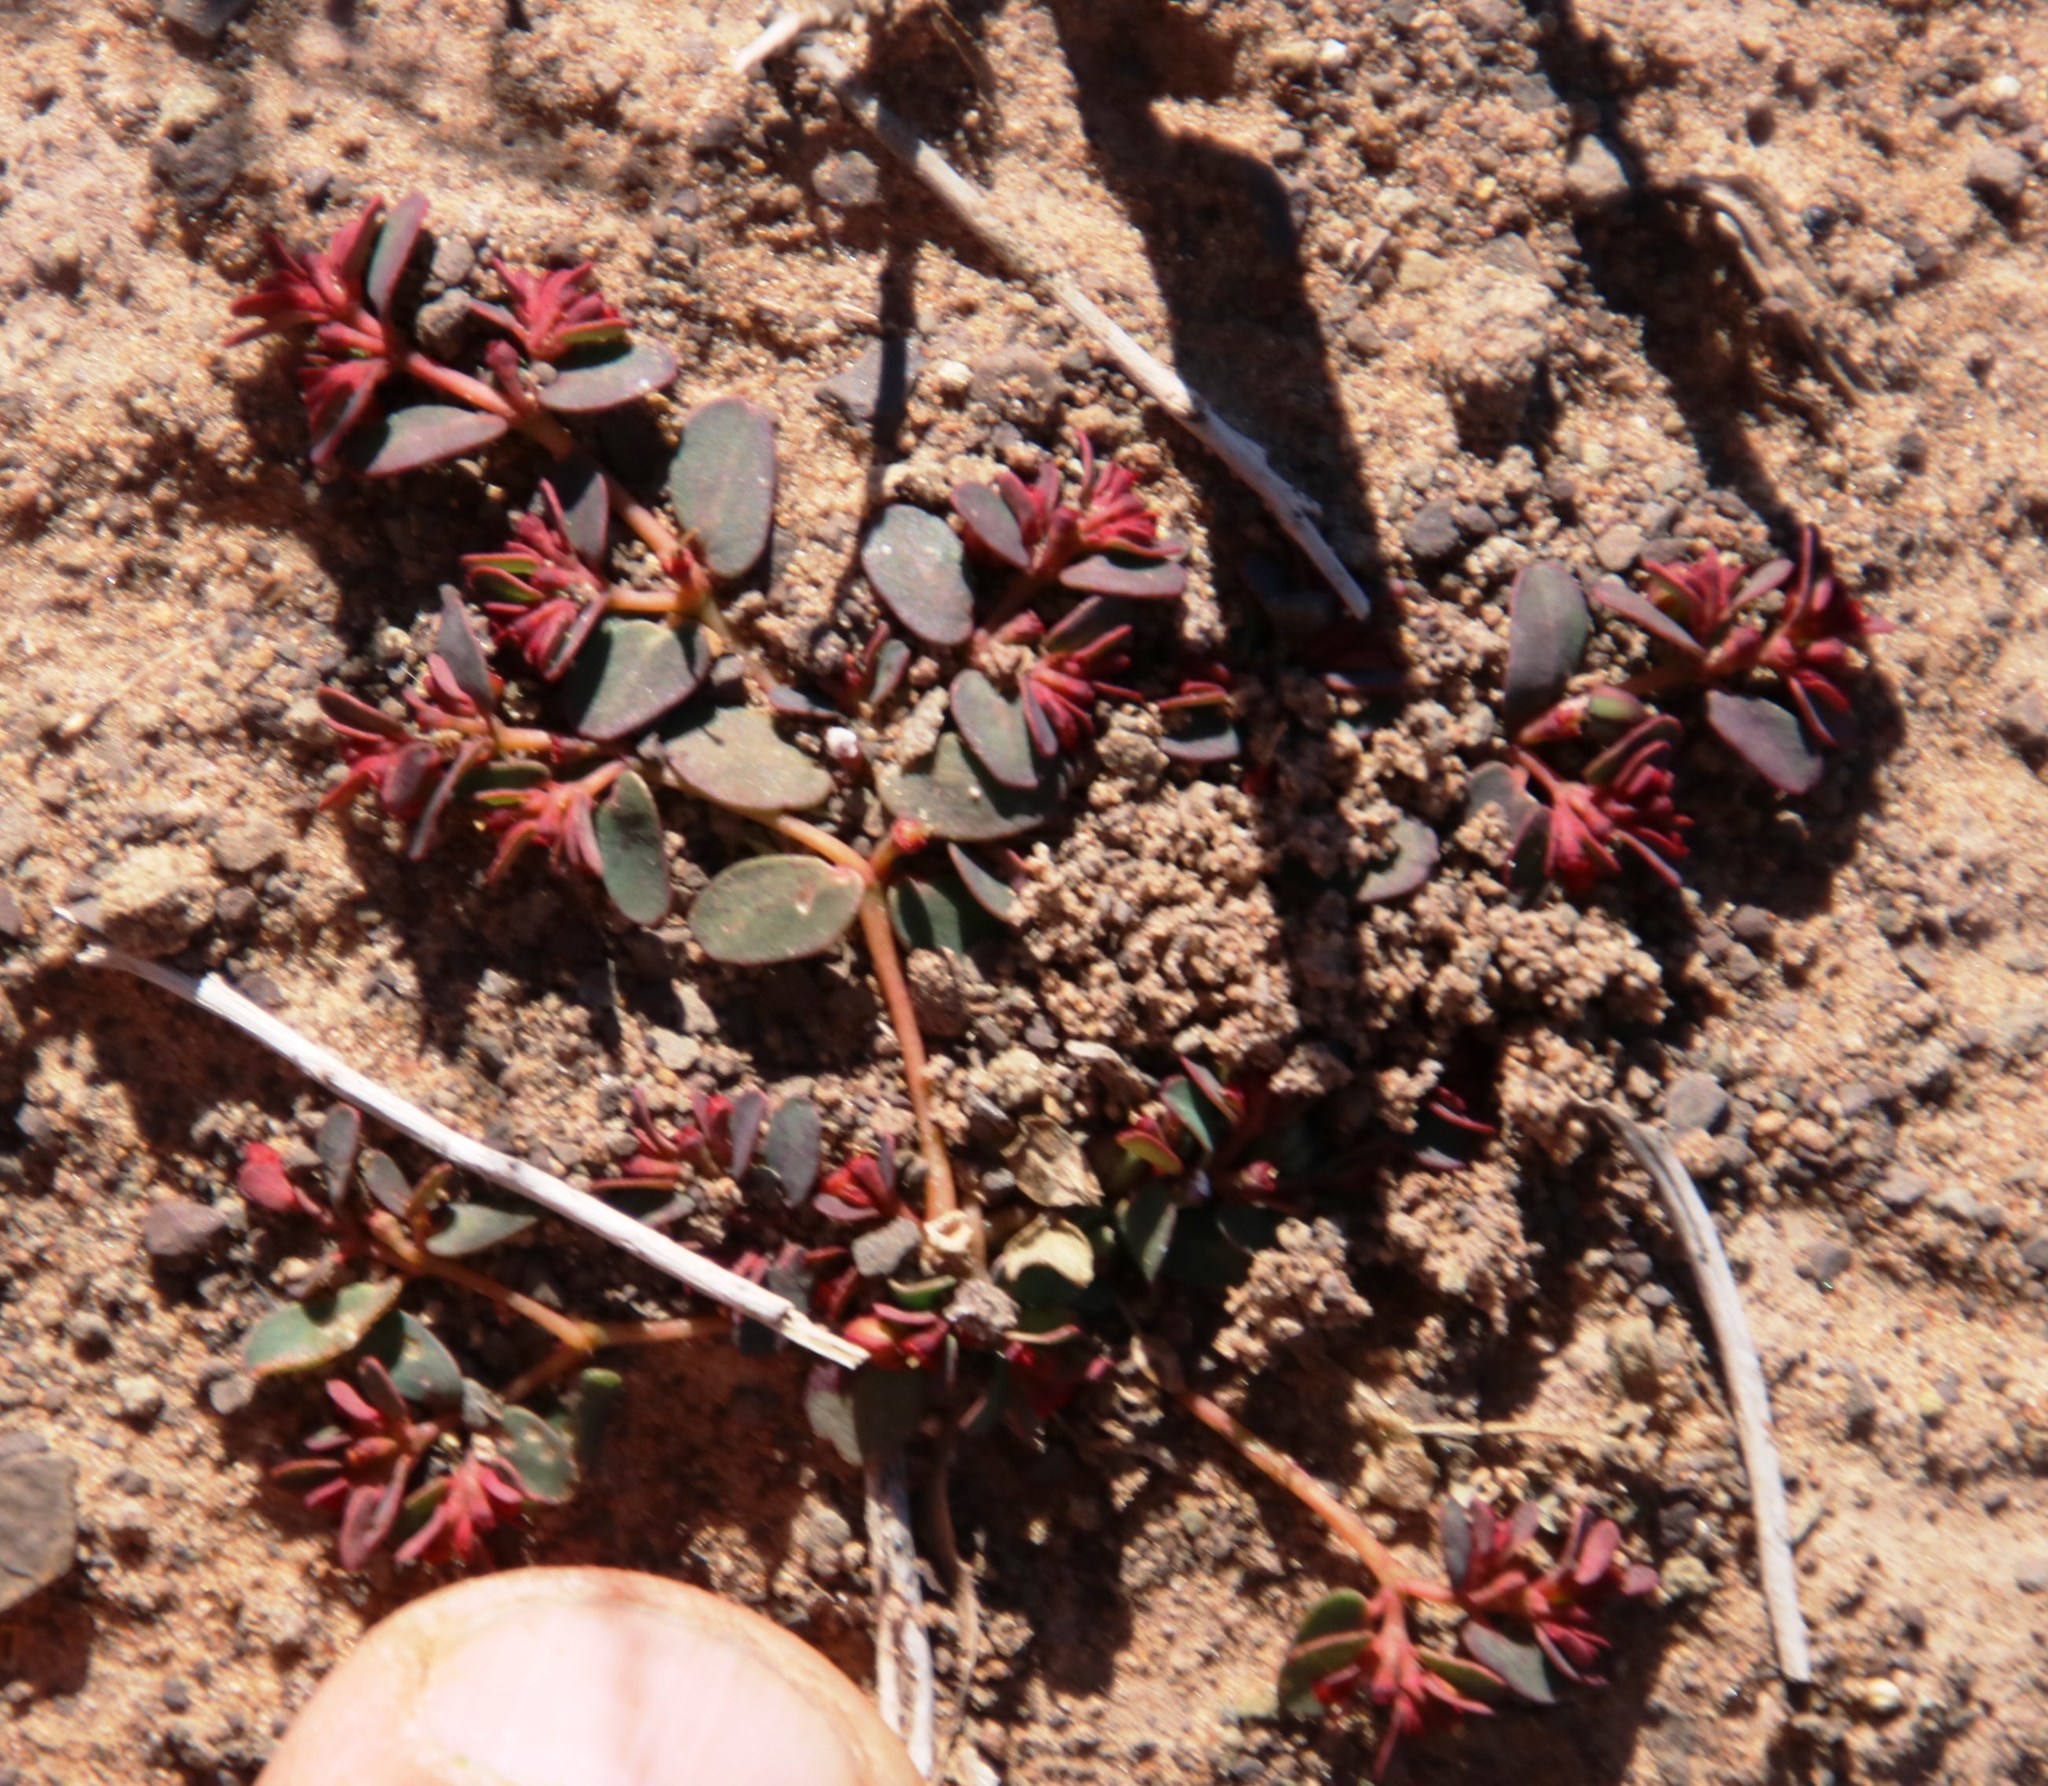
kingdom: Plantae
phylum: Tracheophyta
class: Magnoliopsida
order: Malpighiales
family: Euphorbiaceae
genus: Euphorbia
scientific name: Euphorbia inaequilatera
